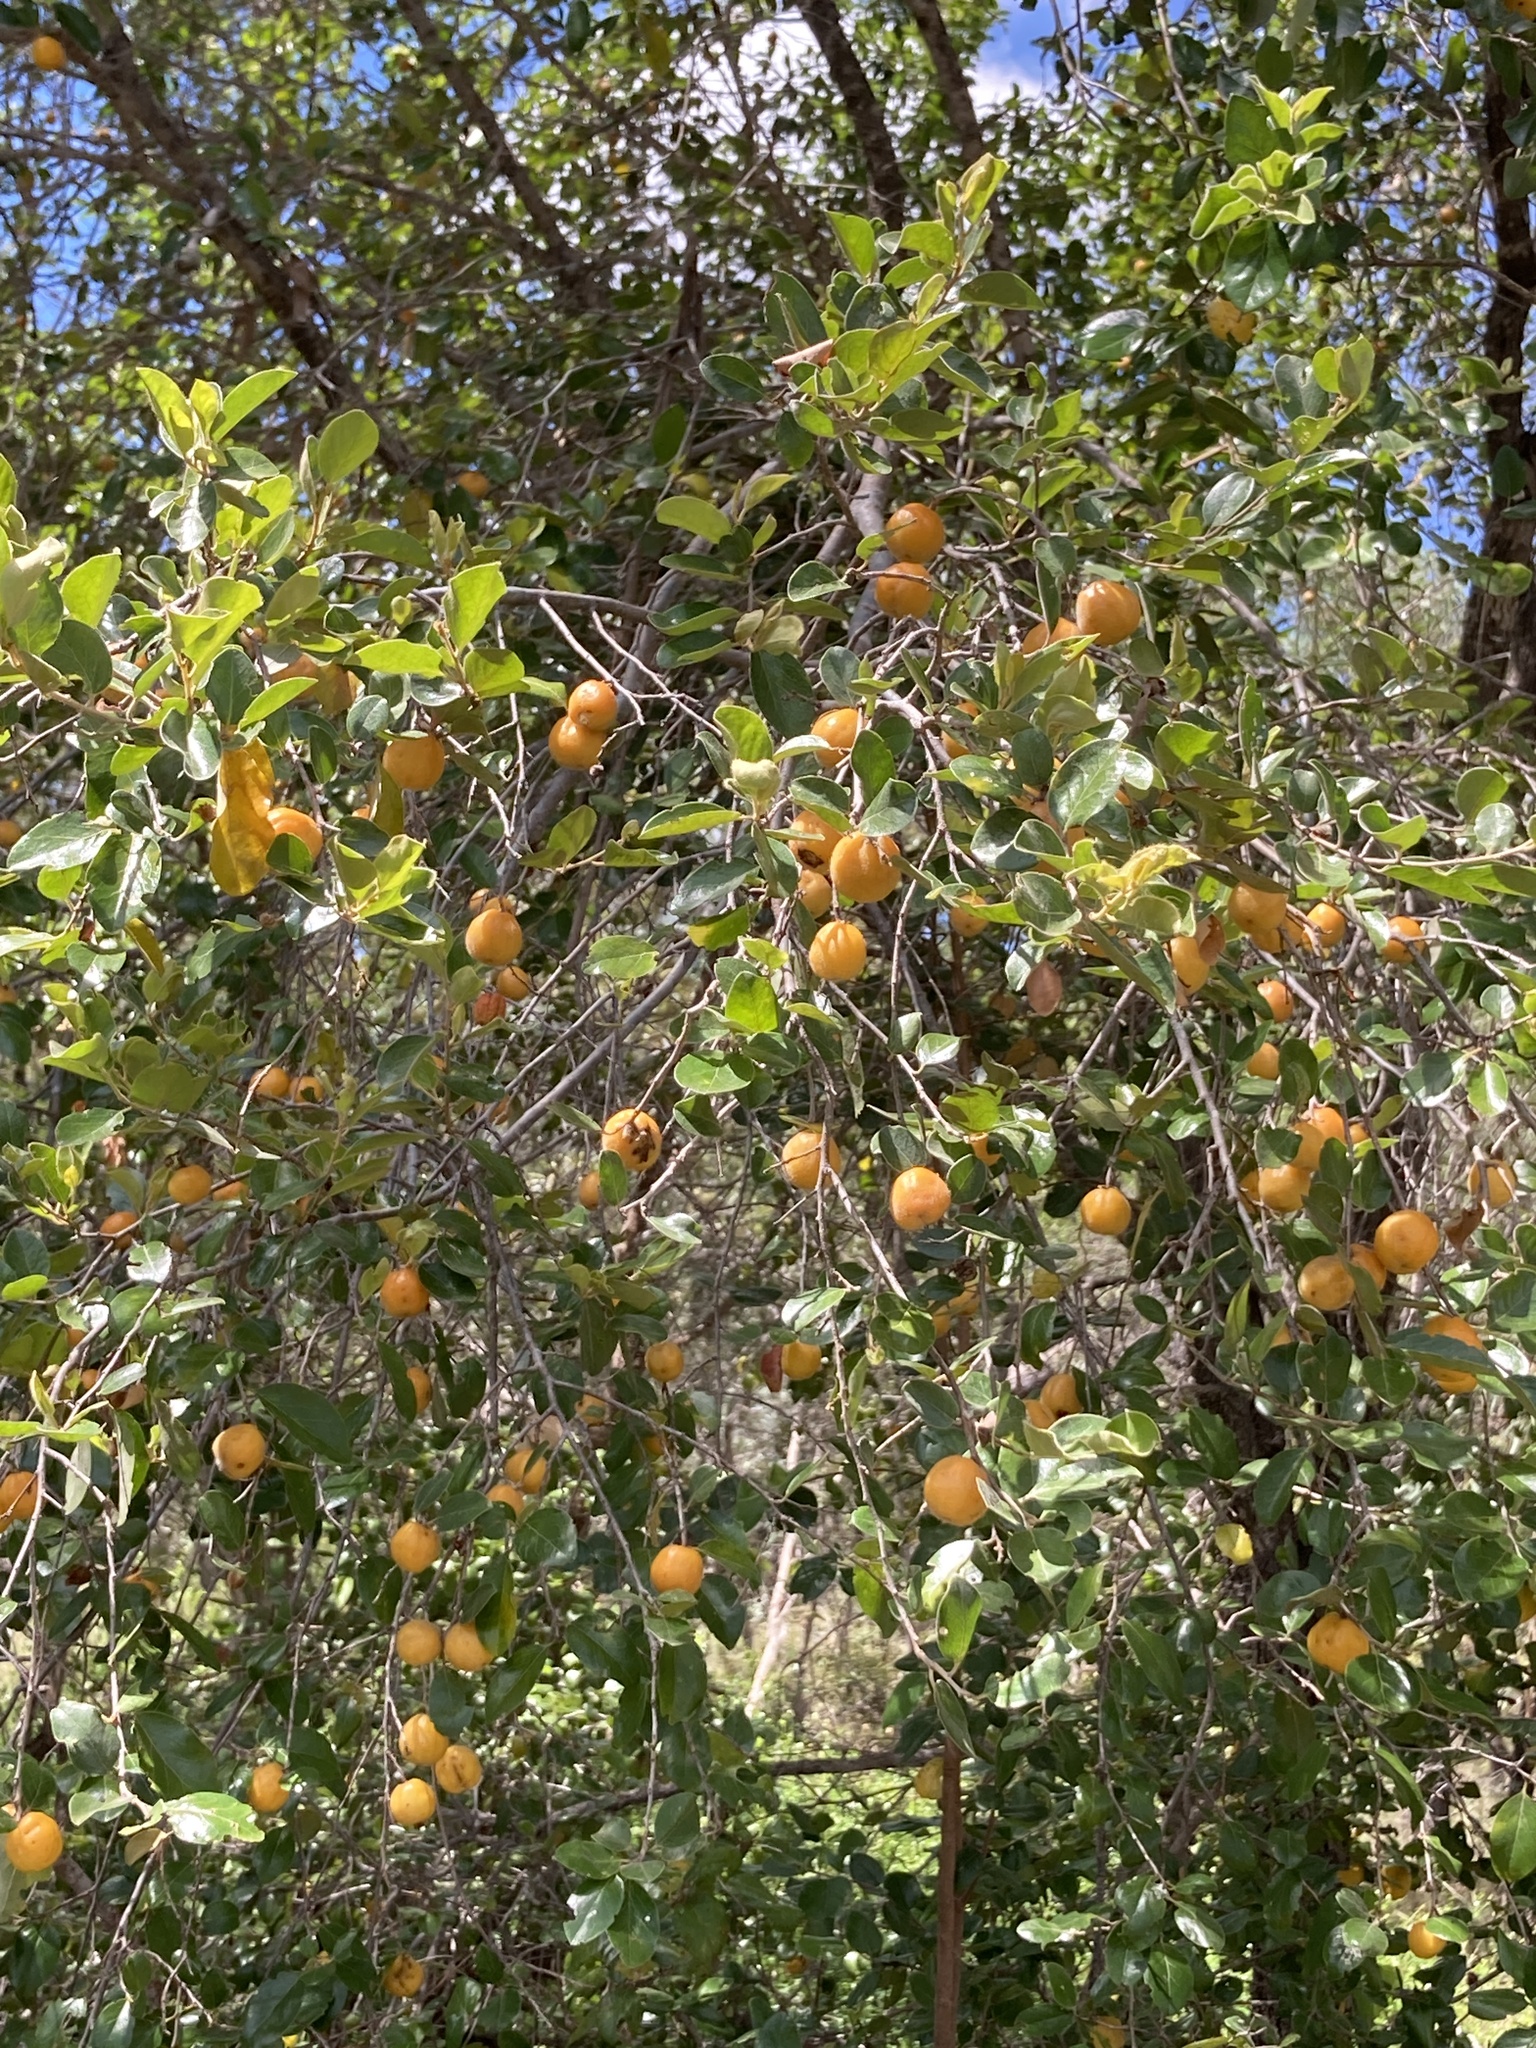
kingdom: Plantae
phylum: Tracheophyta
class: Magnoliopsida
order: Malpighiales
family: Picrodendraceae
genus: Petalostigma
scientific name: Petalostigma pubescens
